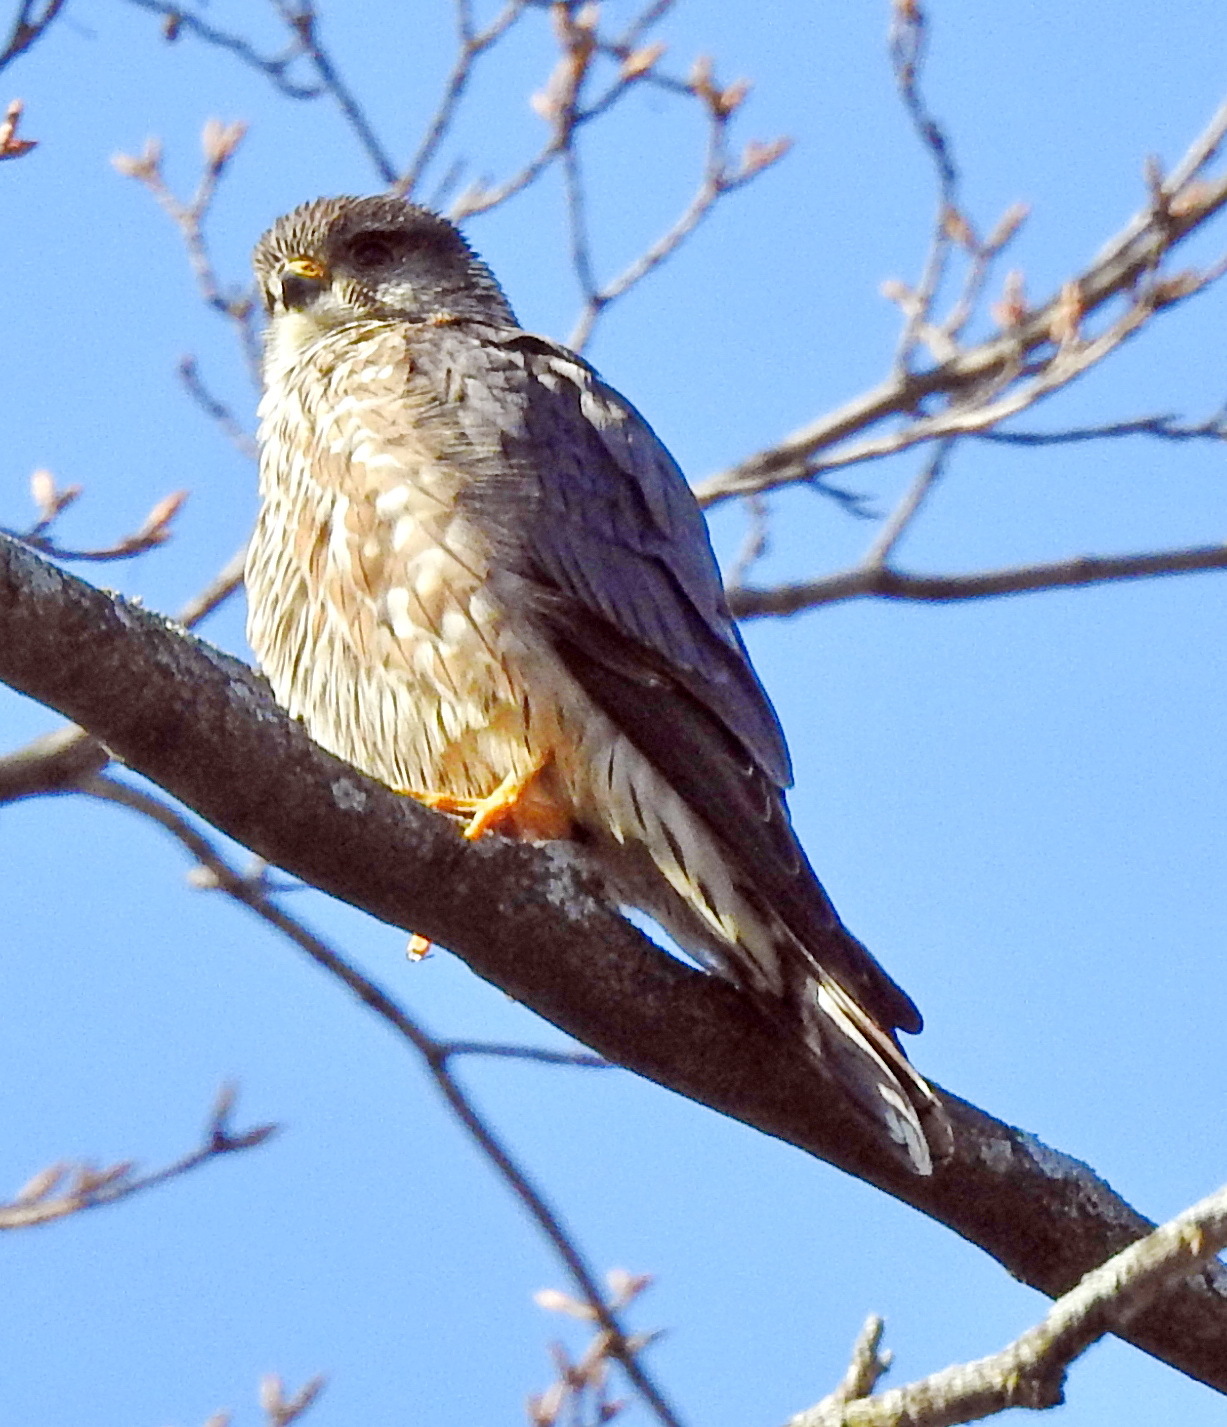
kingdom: Animalia
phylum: Chordata
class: Aves
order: Falconiformes
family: Falconidae
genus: Falco
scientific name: Falco columbarius
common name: Merlin
